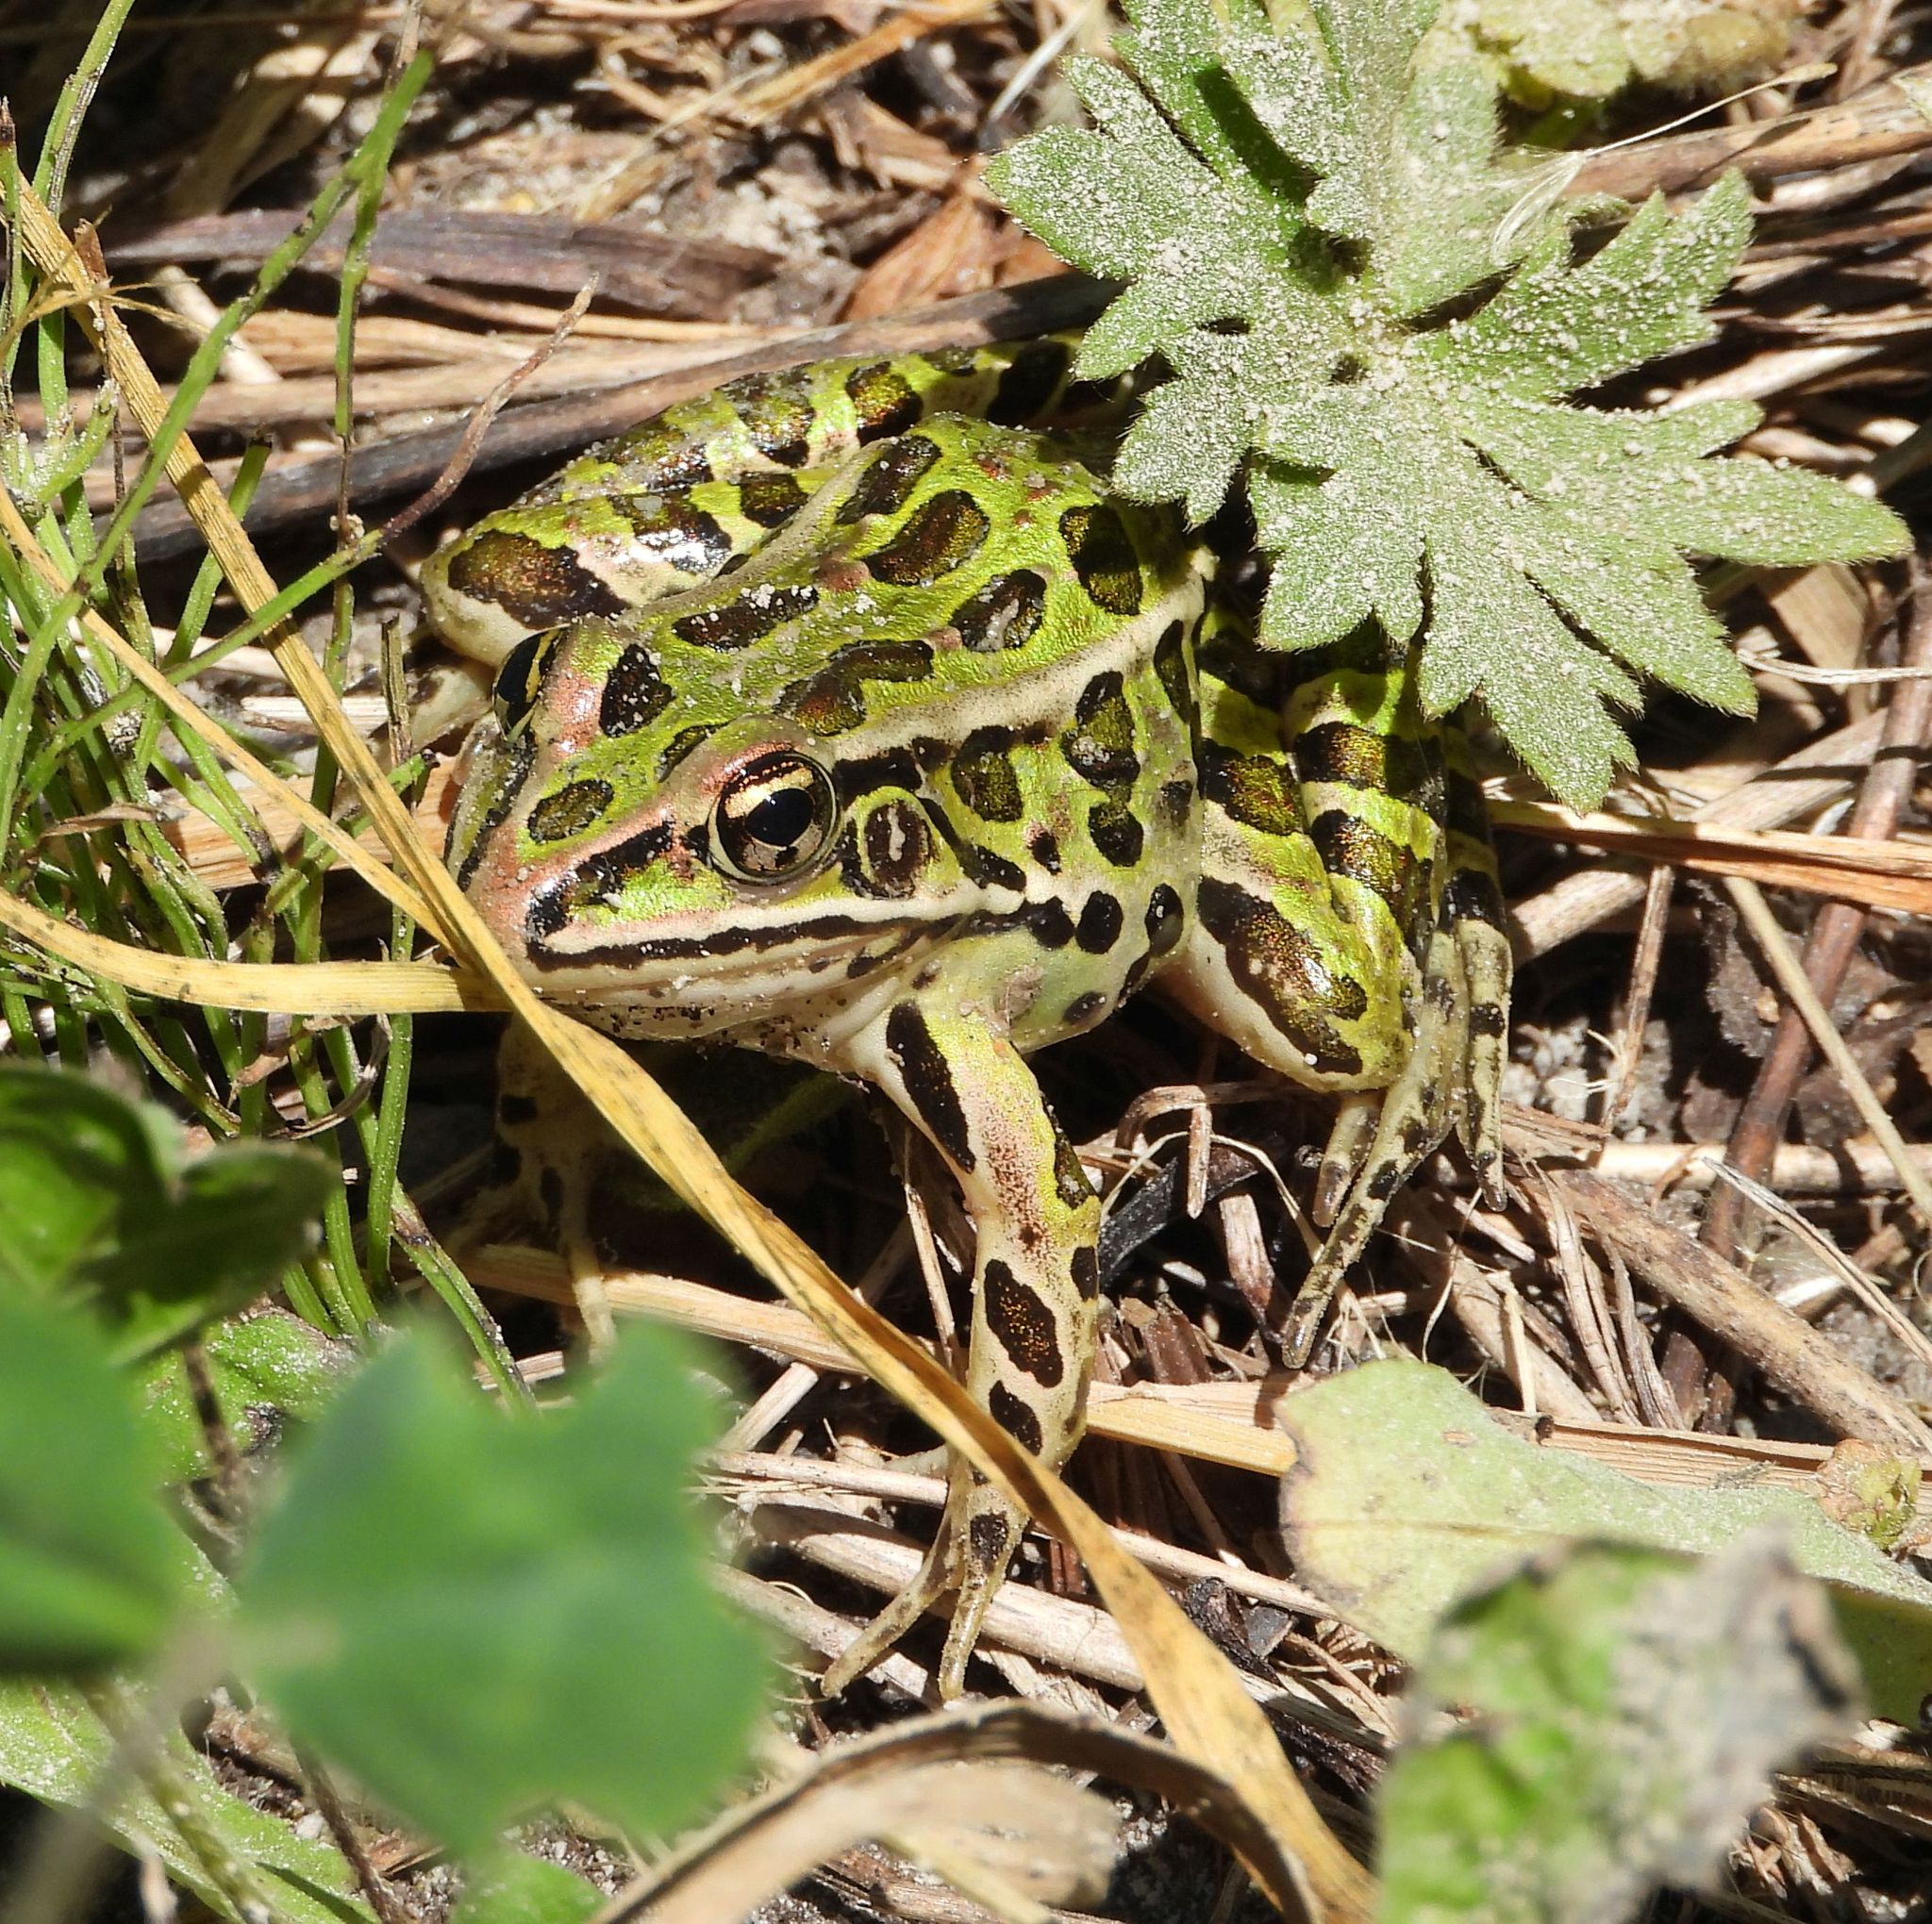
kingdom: Animalia
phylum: Chordata
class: Amphibia
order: Anura
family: Ranidae
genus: Lithobates
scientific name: Lithobates pipiens
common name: Northern leopard frog
